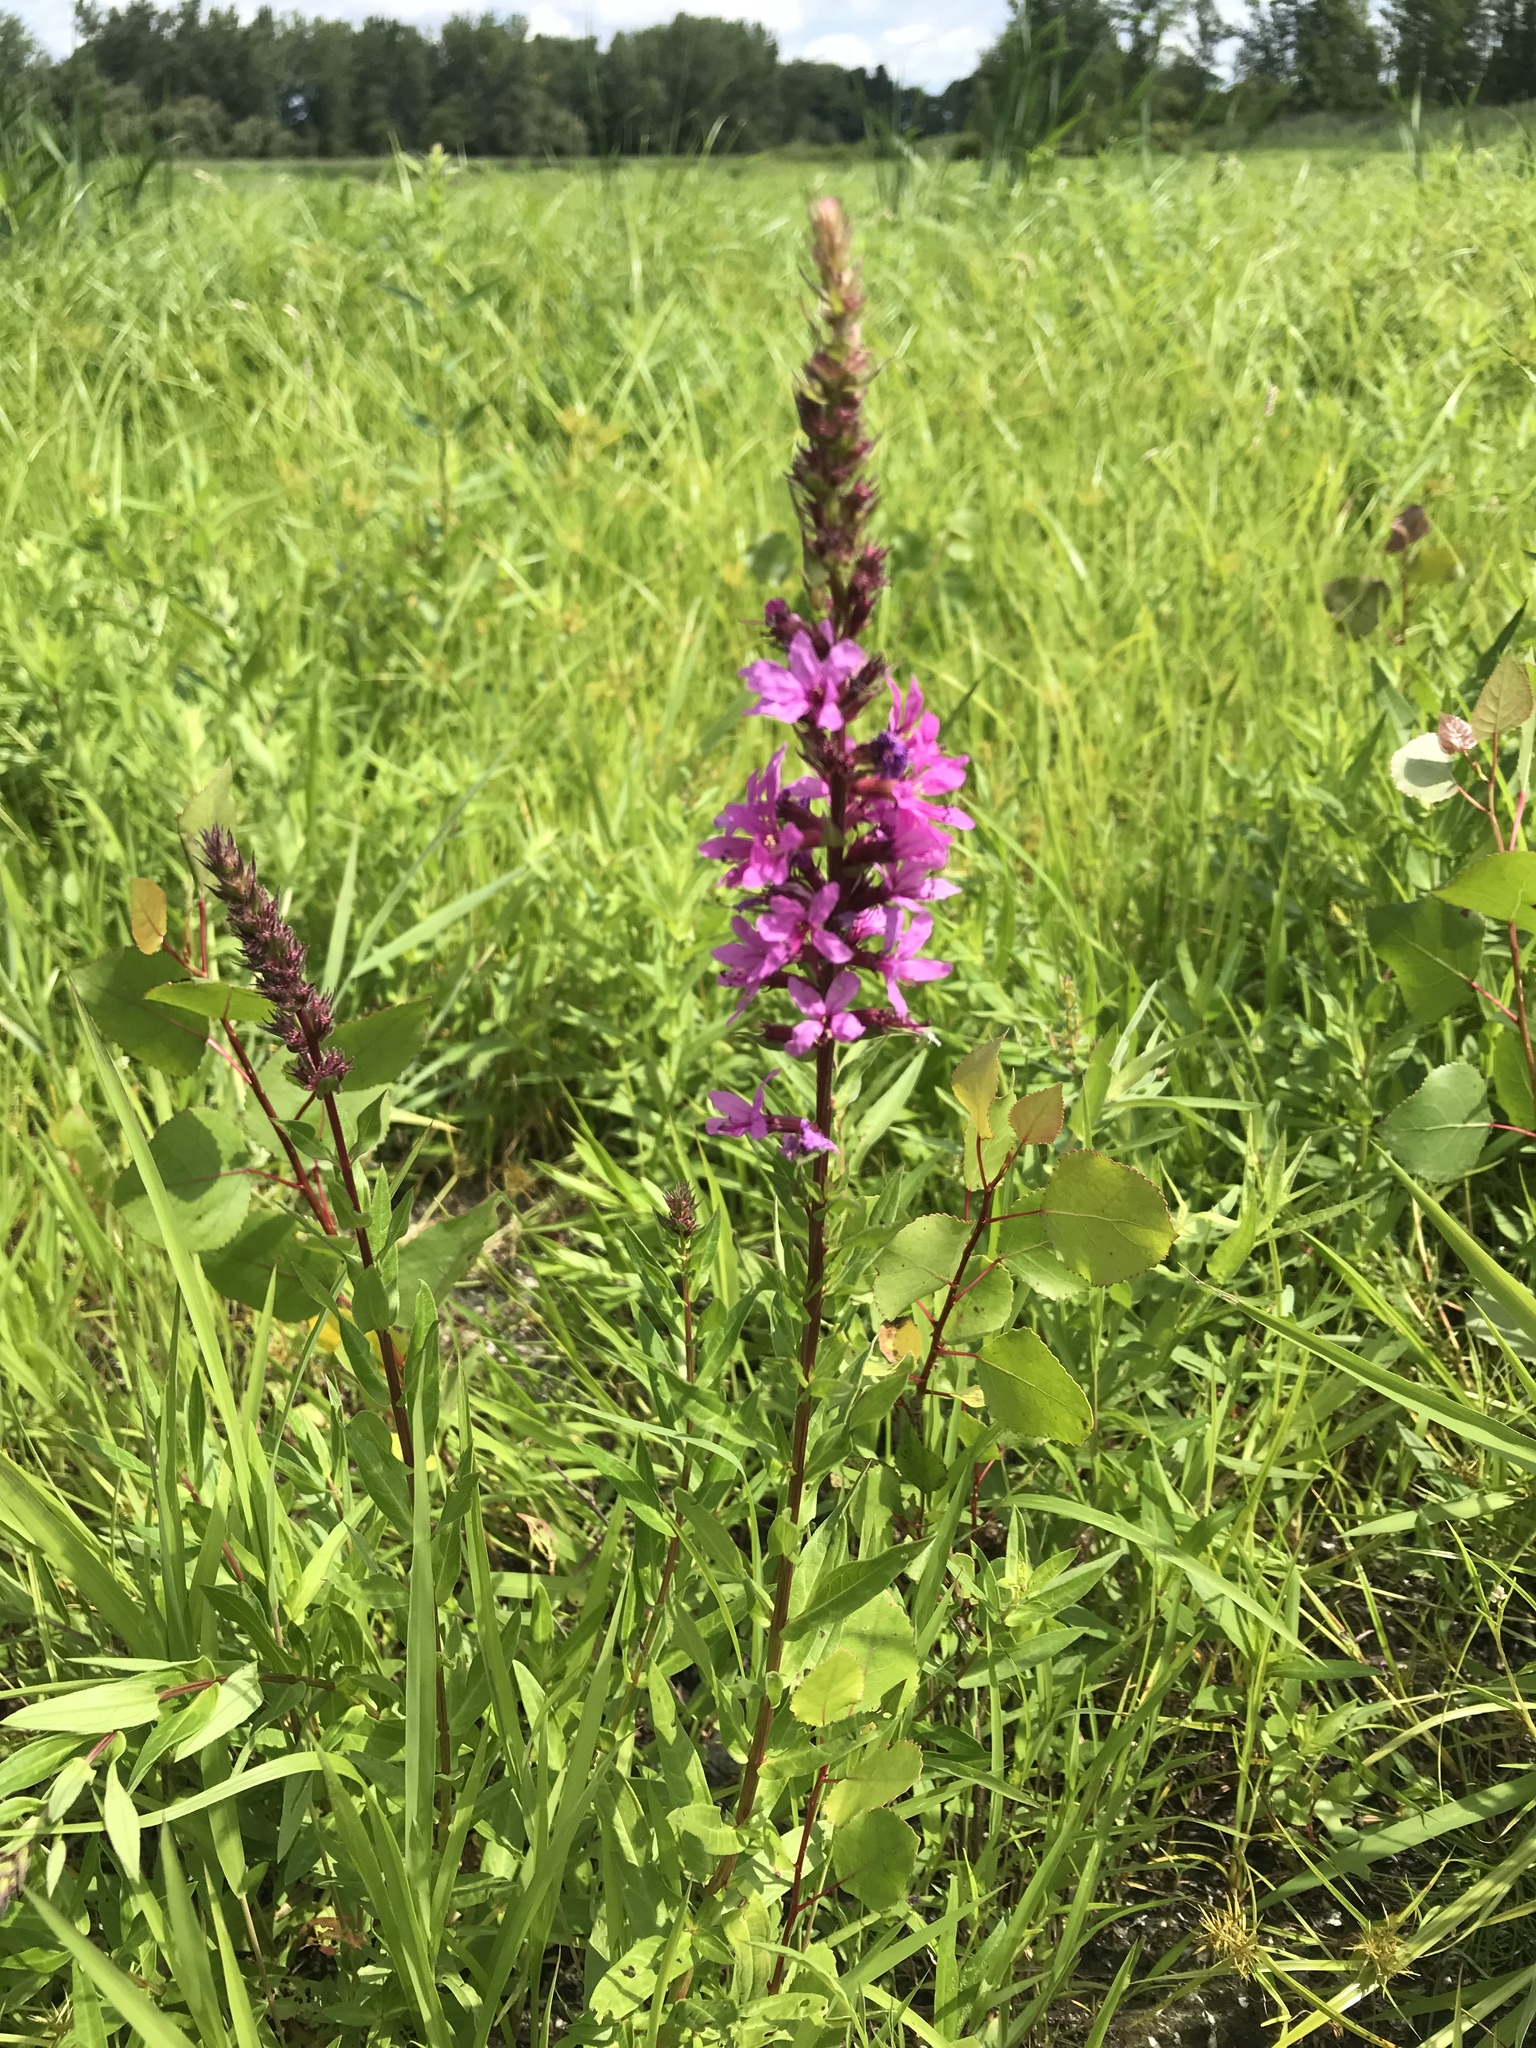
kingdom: Plantae
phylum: Tracheophyta
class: Magnoliopsida
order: Myrtales
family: Lythraceae
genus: Lythrum
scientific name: Lythrum salicaria
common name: Purple loosestrife
